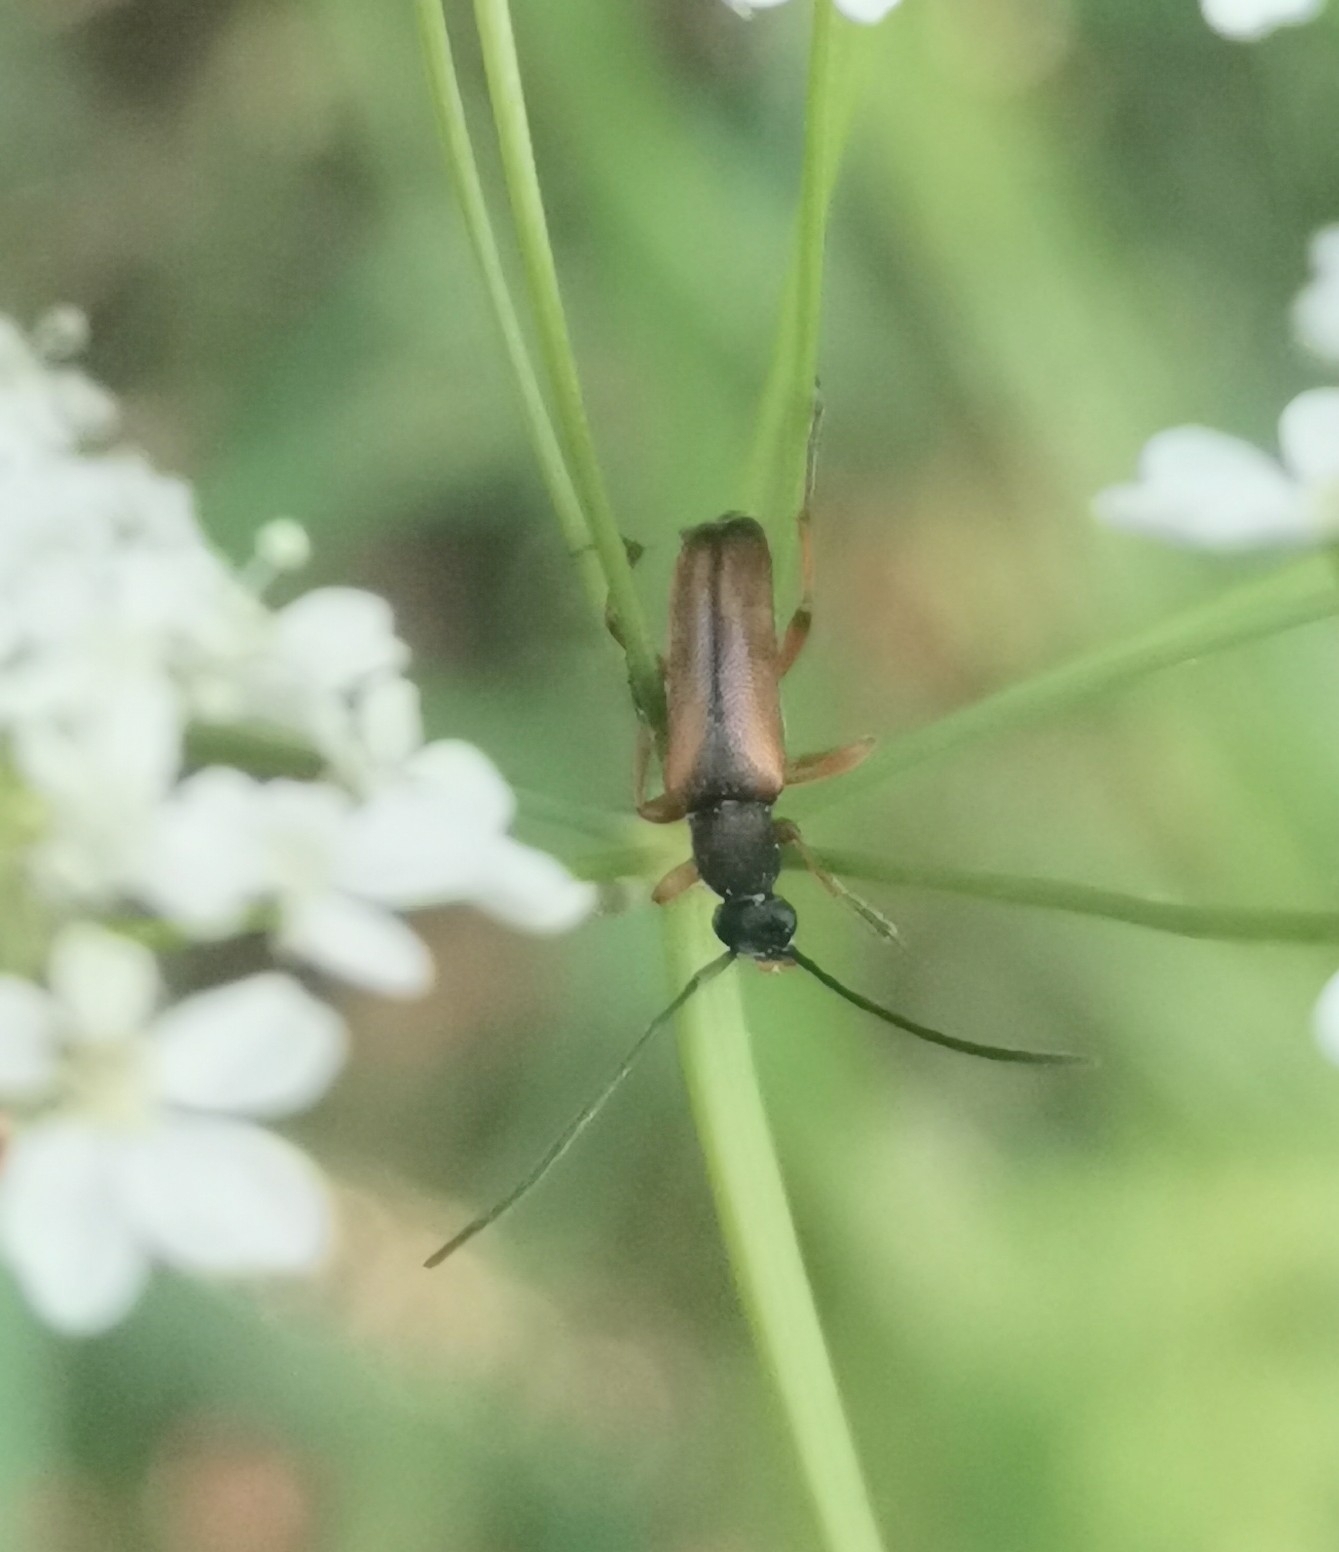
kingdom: Animalia
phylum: Arthropoda
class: Insecta
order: Coleoptera
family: Cerambycidae
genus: Alosterna
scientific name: Alosterna tabacicolor
